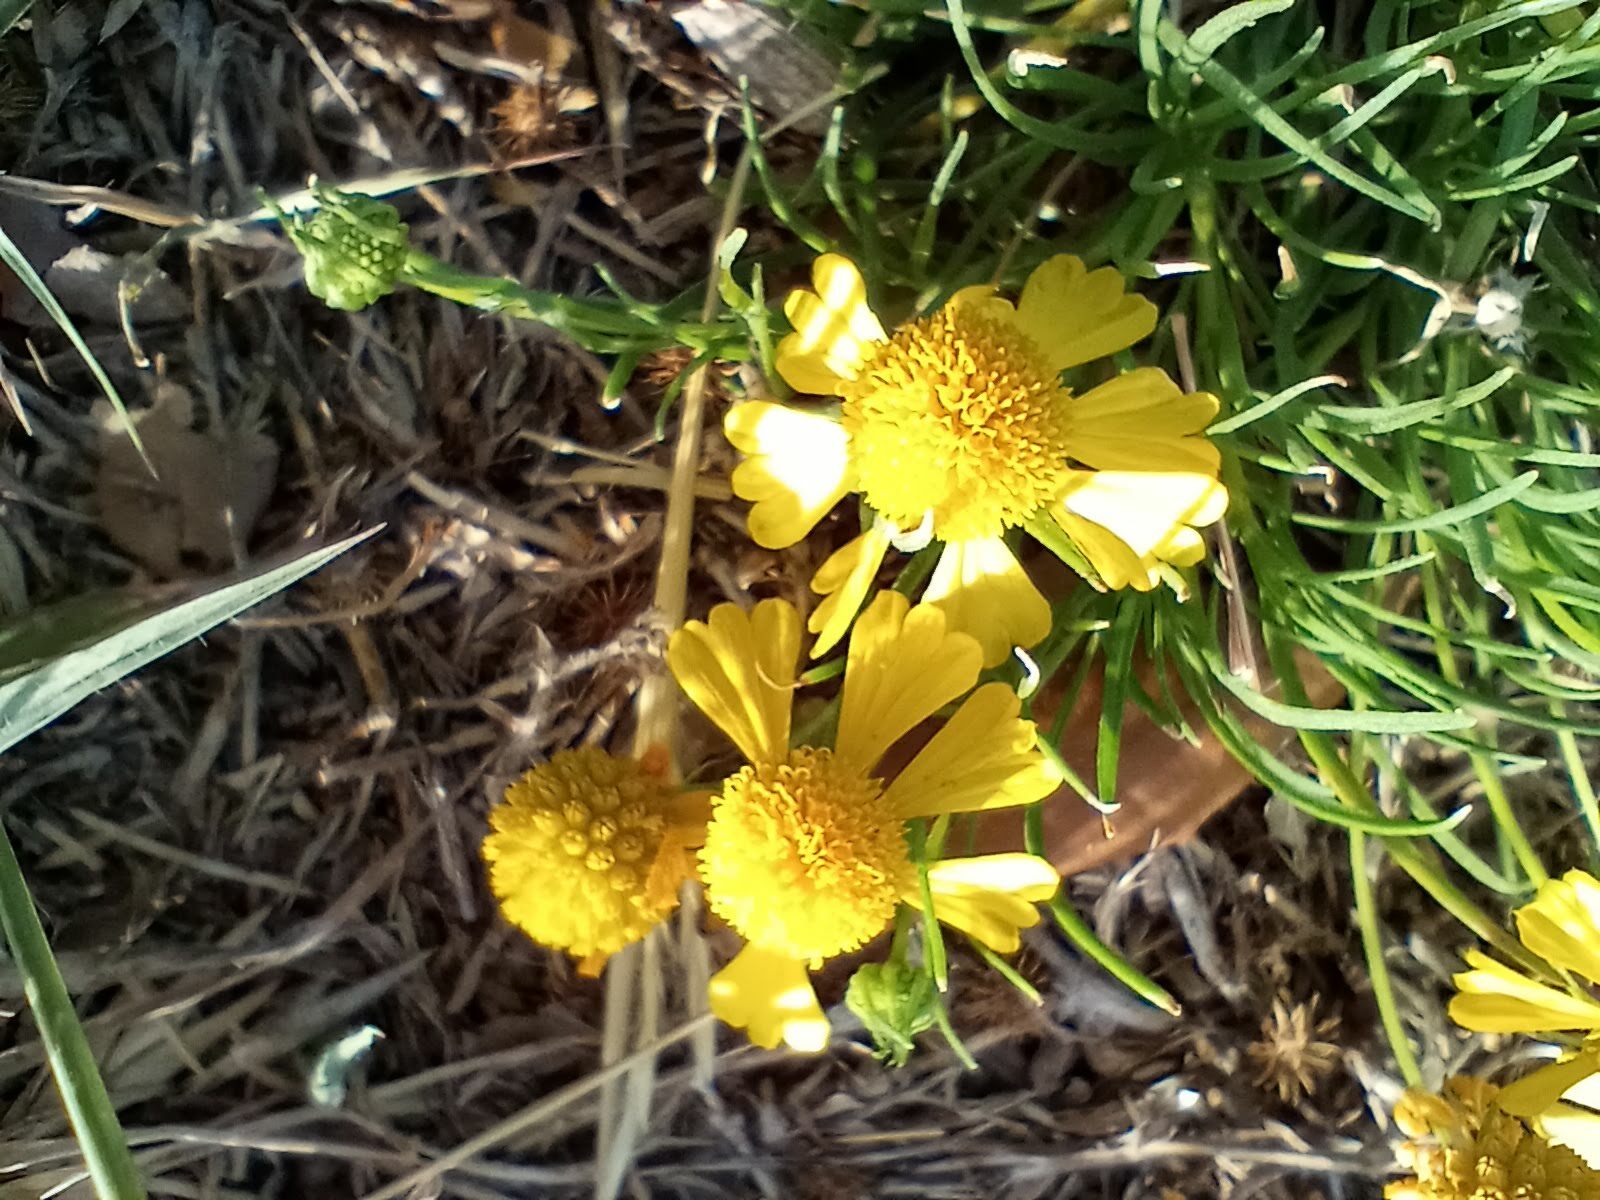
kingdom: Plantae
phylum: Tracheophyta
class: Magnoliopsida
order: Asterales
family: Asteraceae
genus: Helenium
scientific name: Helenium amarum
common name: Bitter sneezeweed
